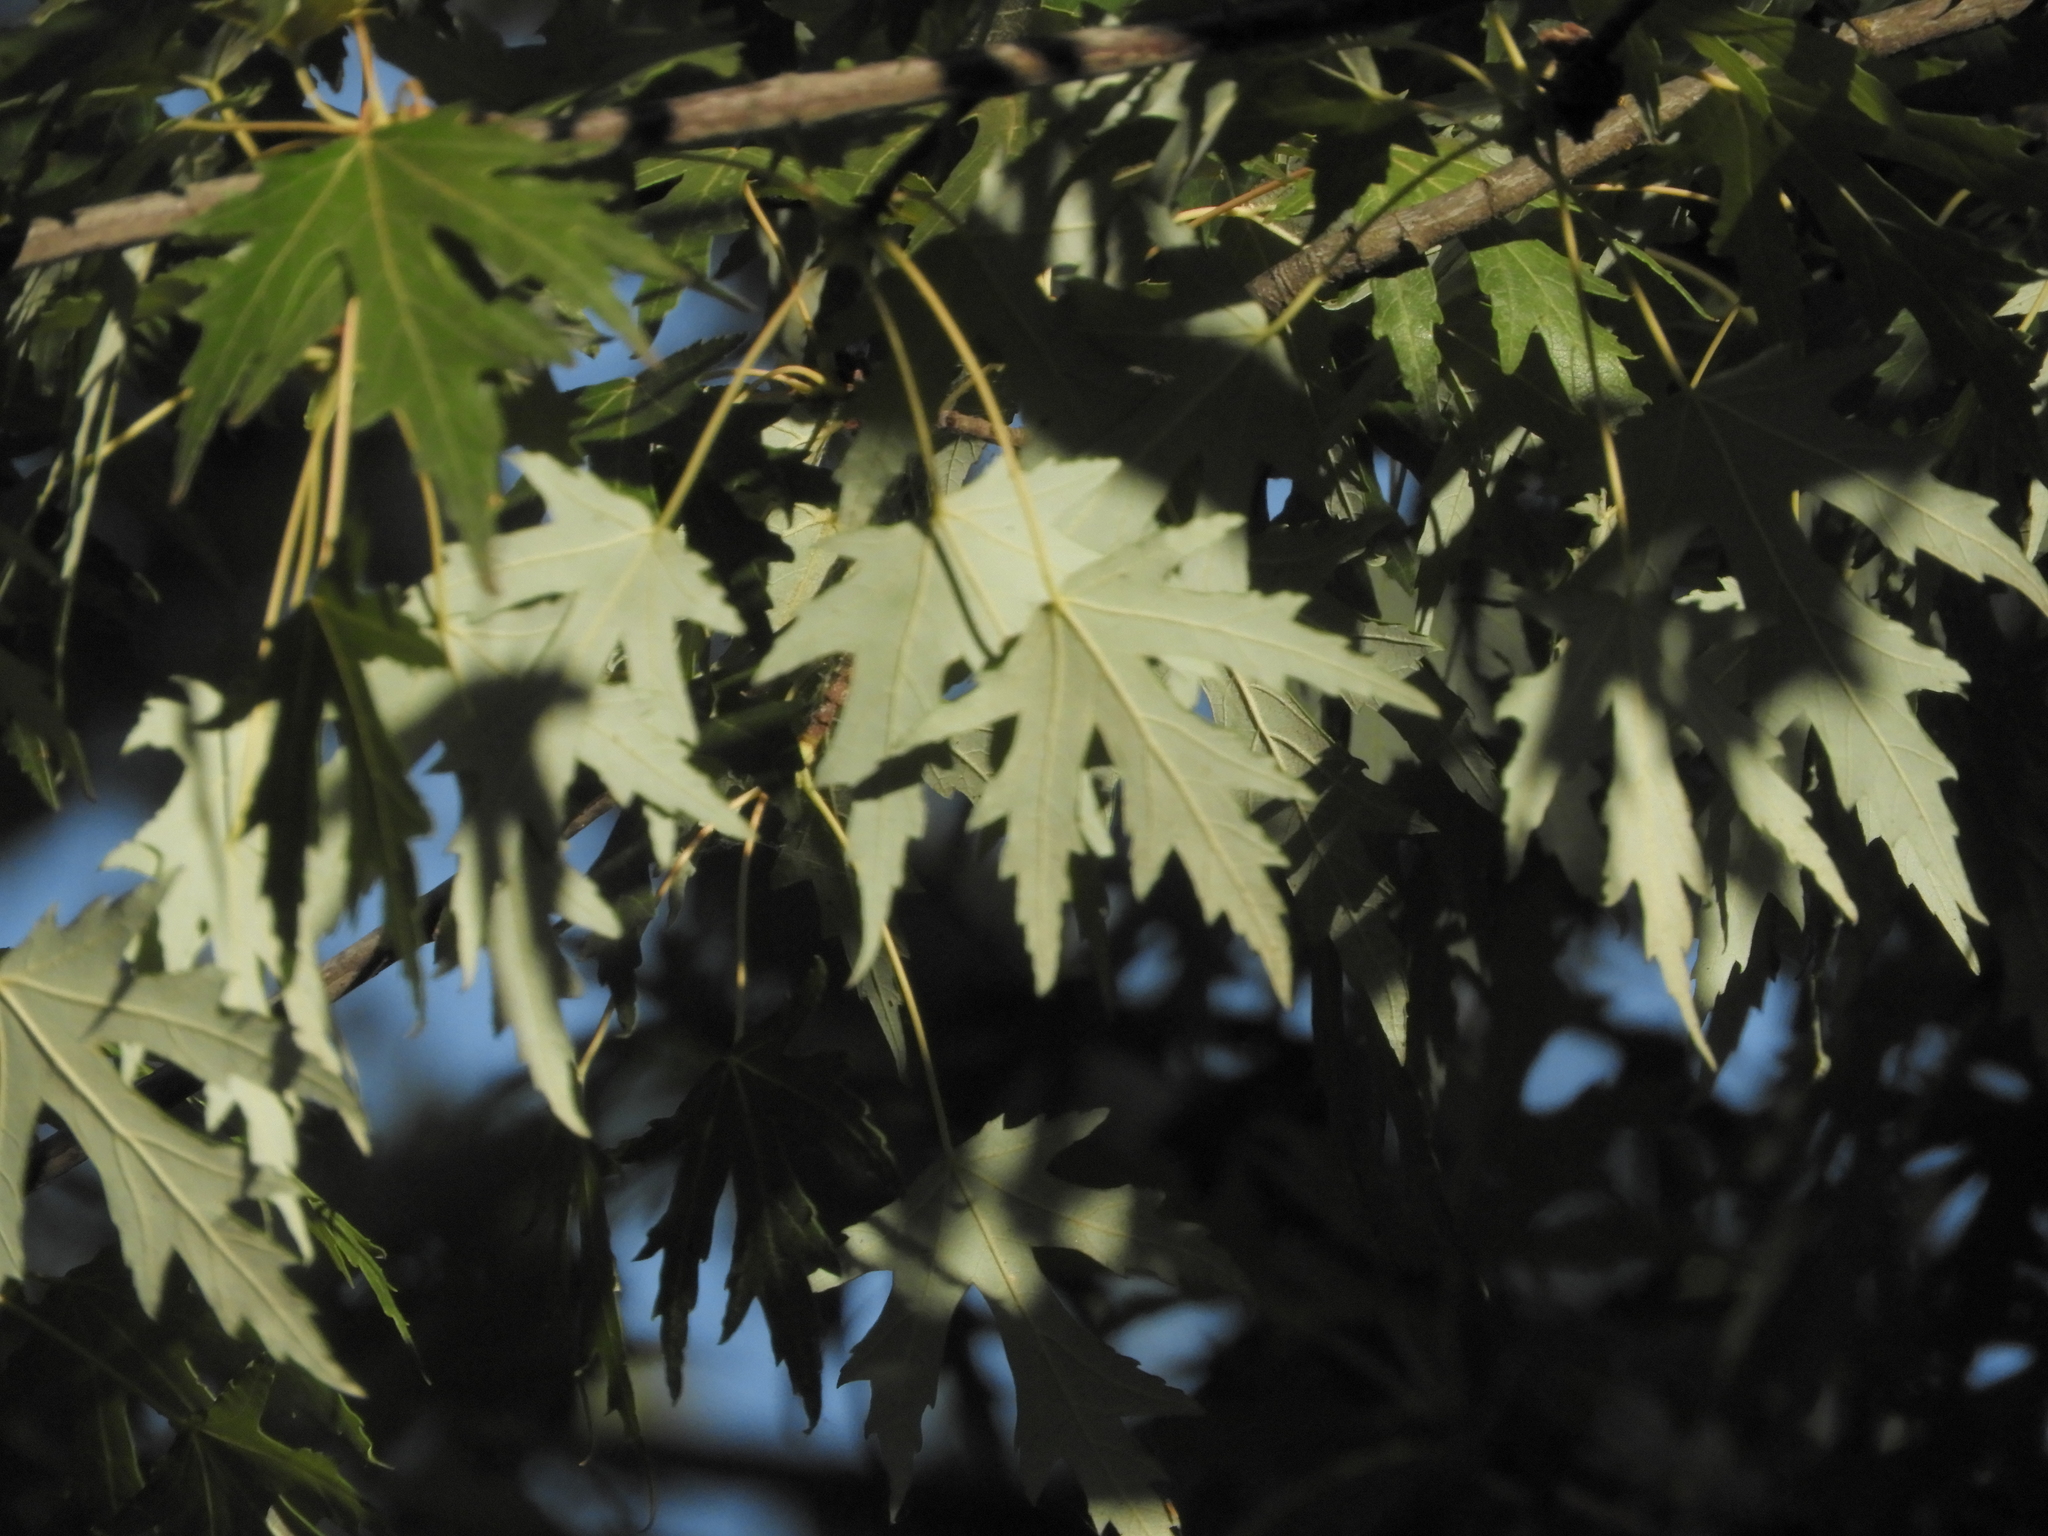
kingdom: Plantae
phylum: Tracheophyta
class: Magnoliopsida
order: Sapindales
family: Sapindaceae
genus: Acer
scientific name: Acer saccharinum
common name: Silver maple
